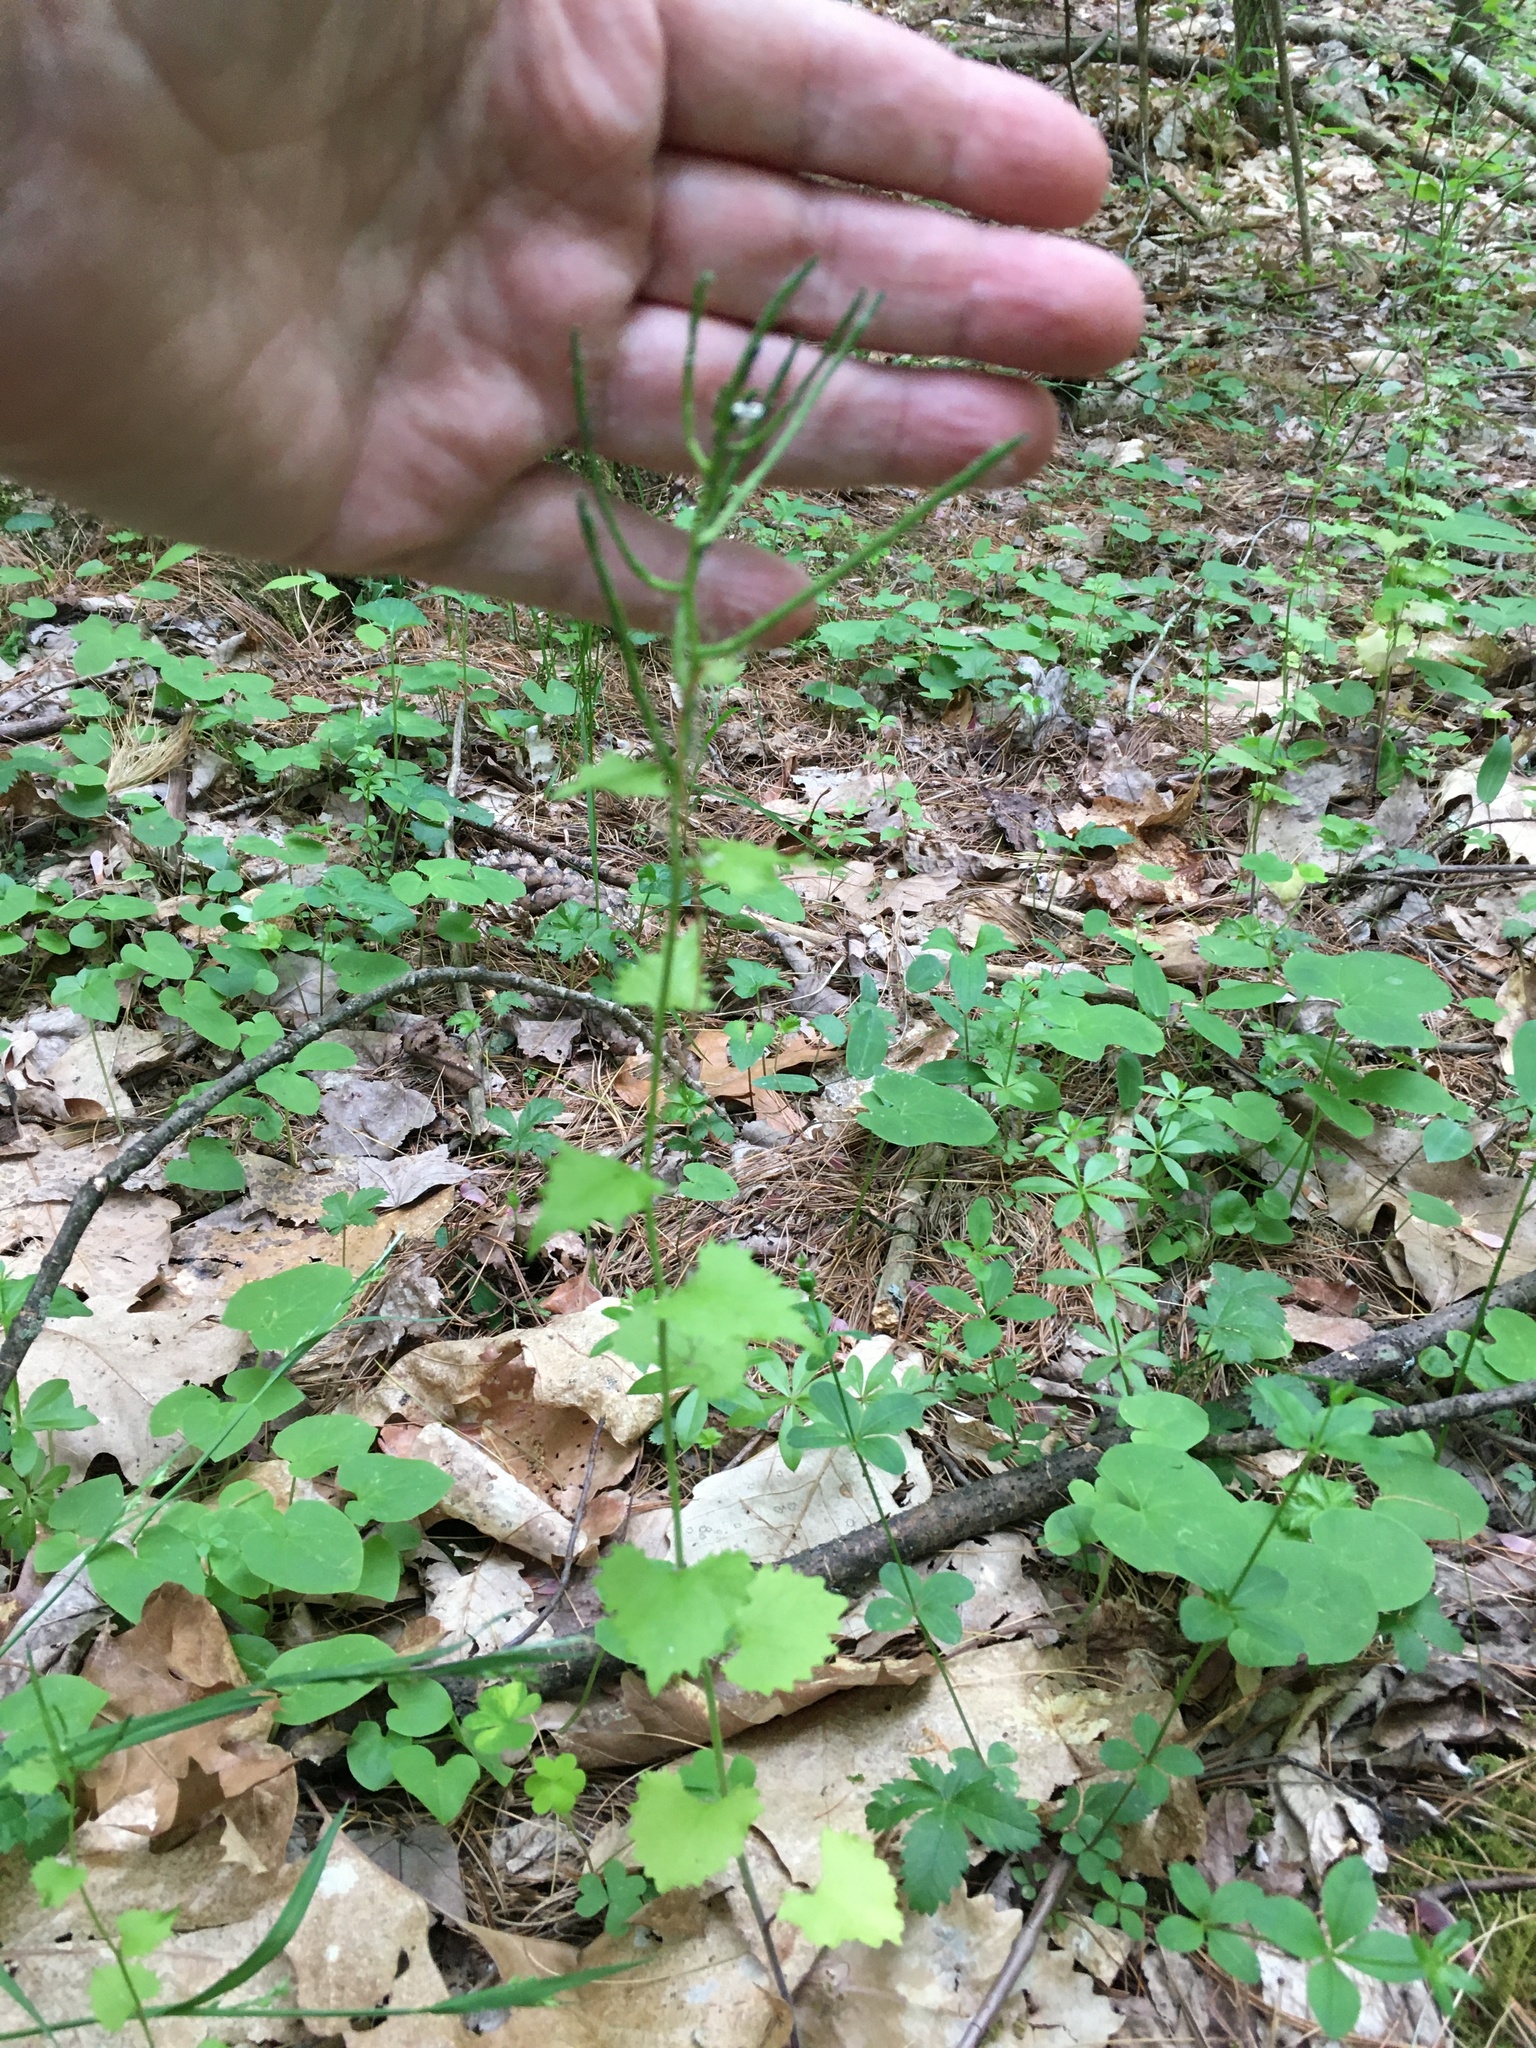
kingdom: Plantae
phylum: Tracheophyta
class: Magnoliopsida
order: Brassicales
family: Brassicaceae
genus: Alliaria
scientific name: Alliaria petiolata
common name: Garlic mustard
